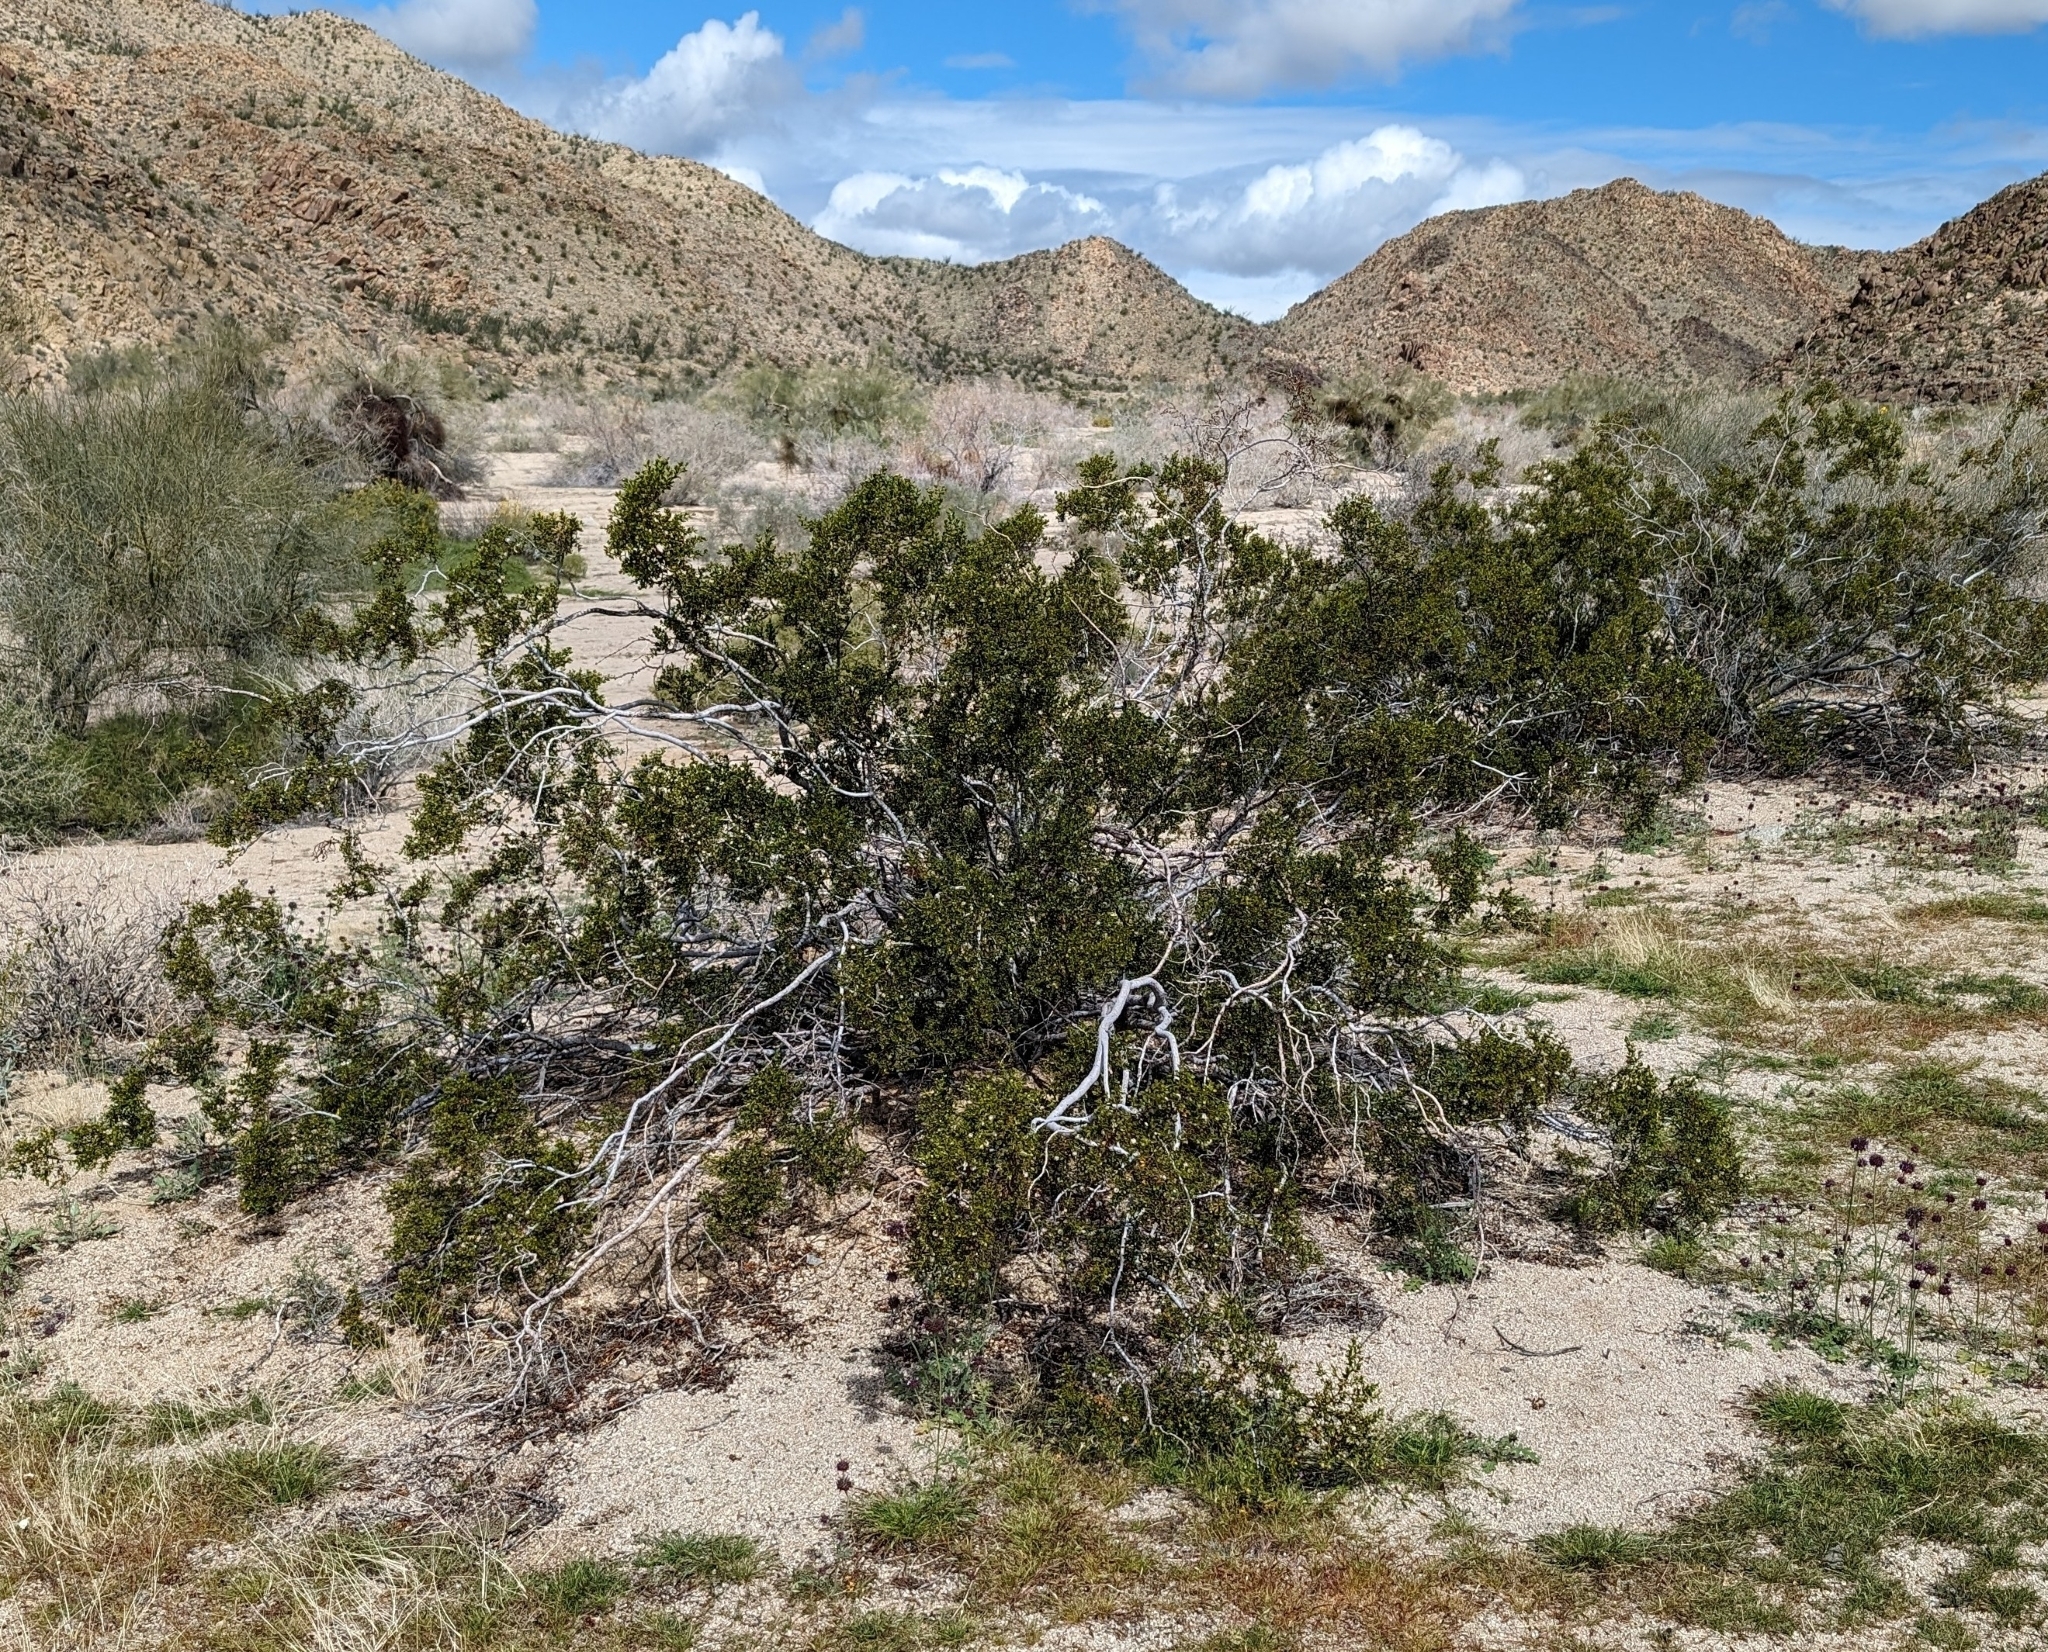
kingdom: Plantae
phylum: Tracheophyta
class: Magnoliopsida
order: Zygophyllales
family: Zygophyllaceae
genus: Larrea
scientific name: Larrea tridentata
